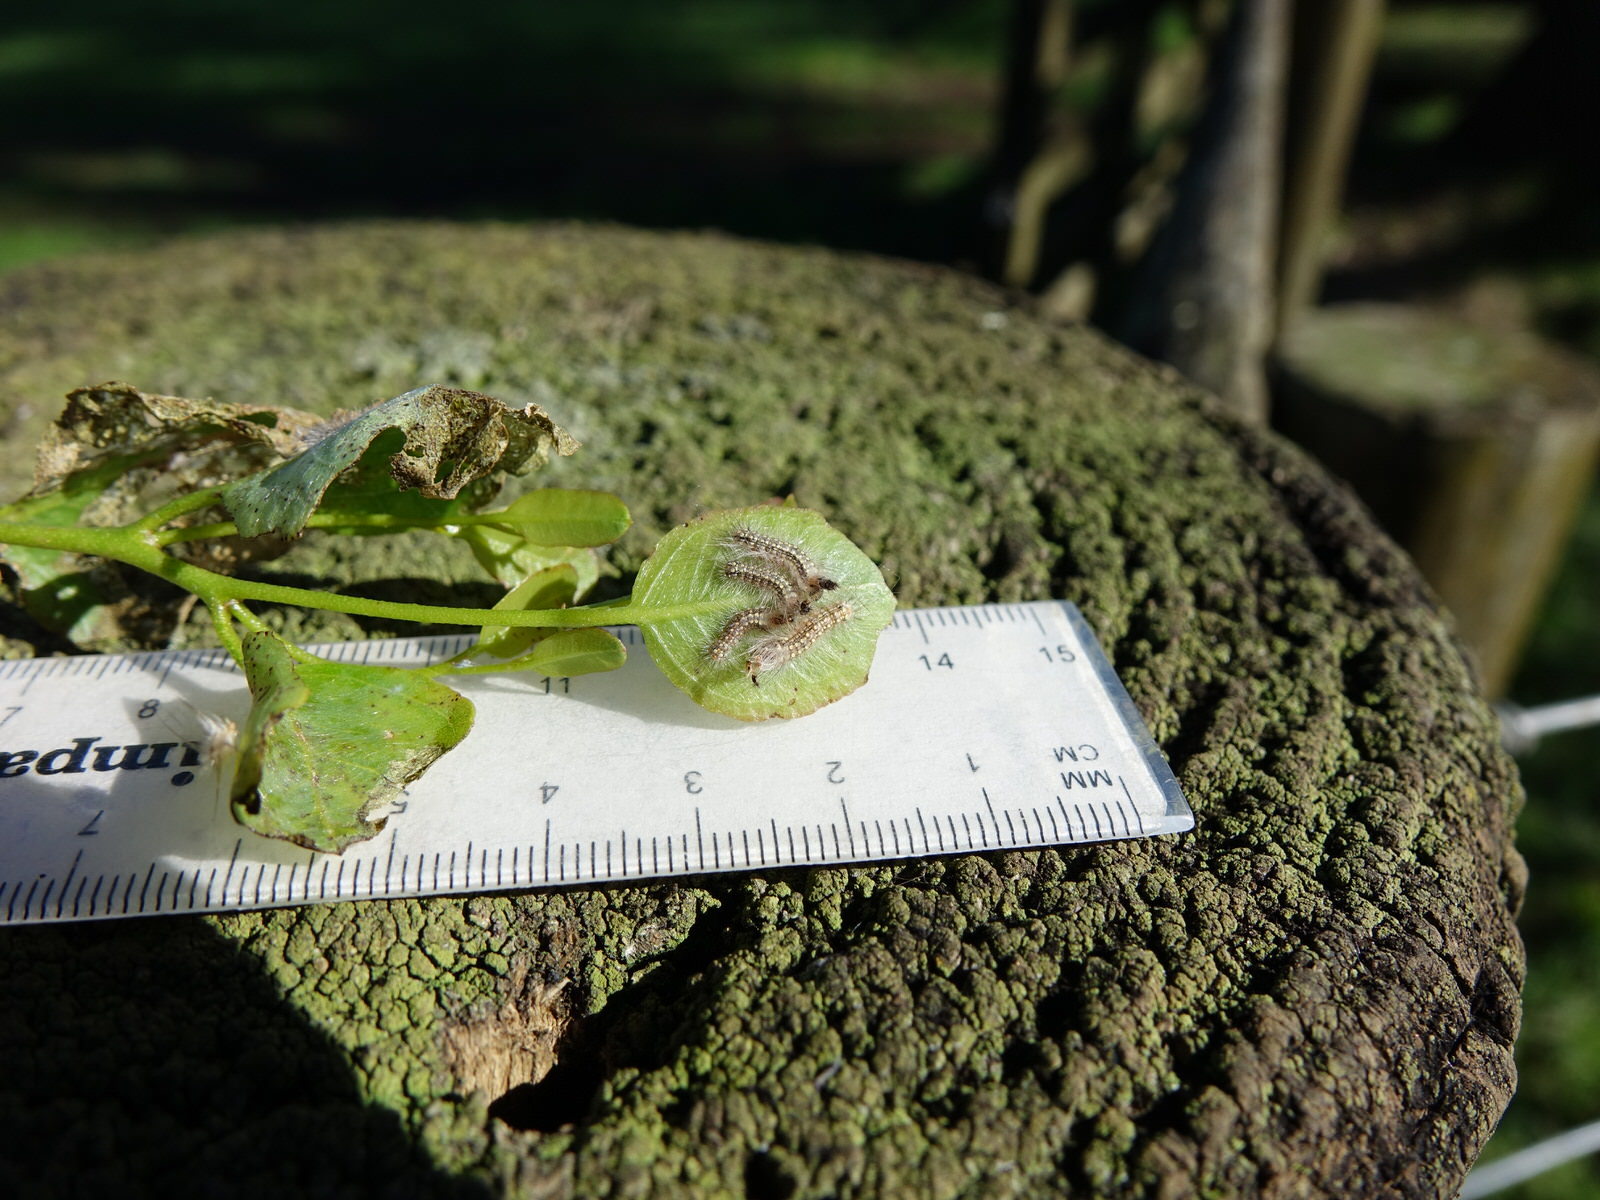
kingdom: Animalia
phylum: Arthropoda
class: Insecta
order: Lepidoptera
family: Nolidae
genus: Uraba
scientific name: Uraba lugens
